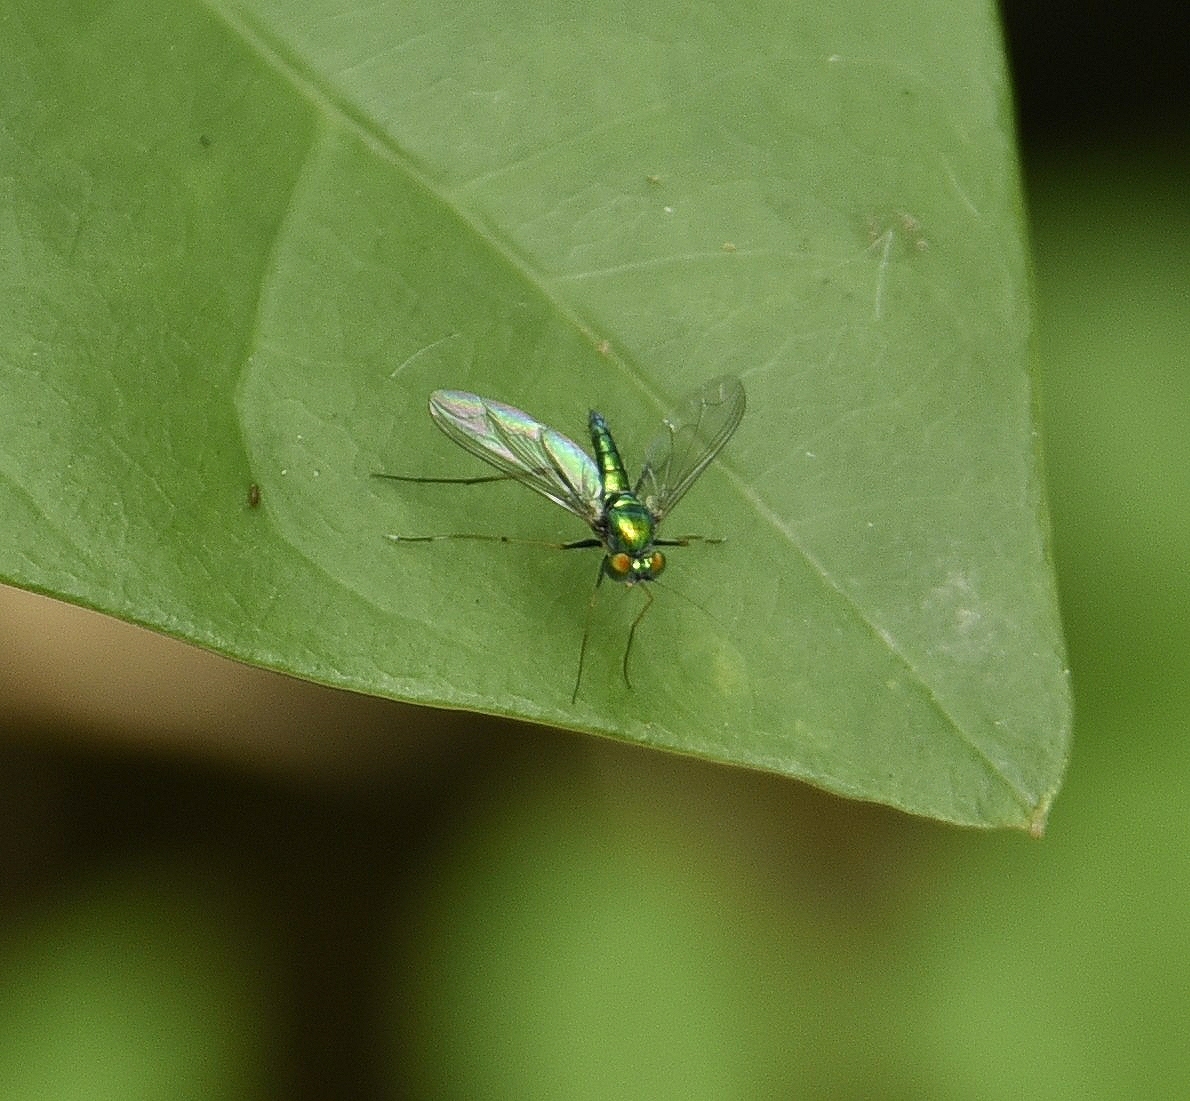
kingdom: Animalia
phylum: Arthropoda
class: Insecta
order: Diptera
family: Dolichopodidae
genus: Chrysosoma
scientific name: Chrysosoma leucopogon
